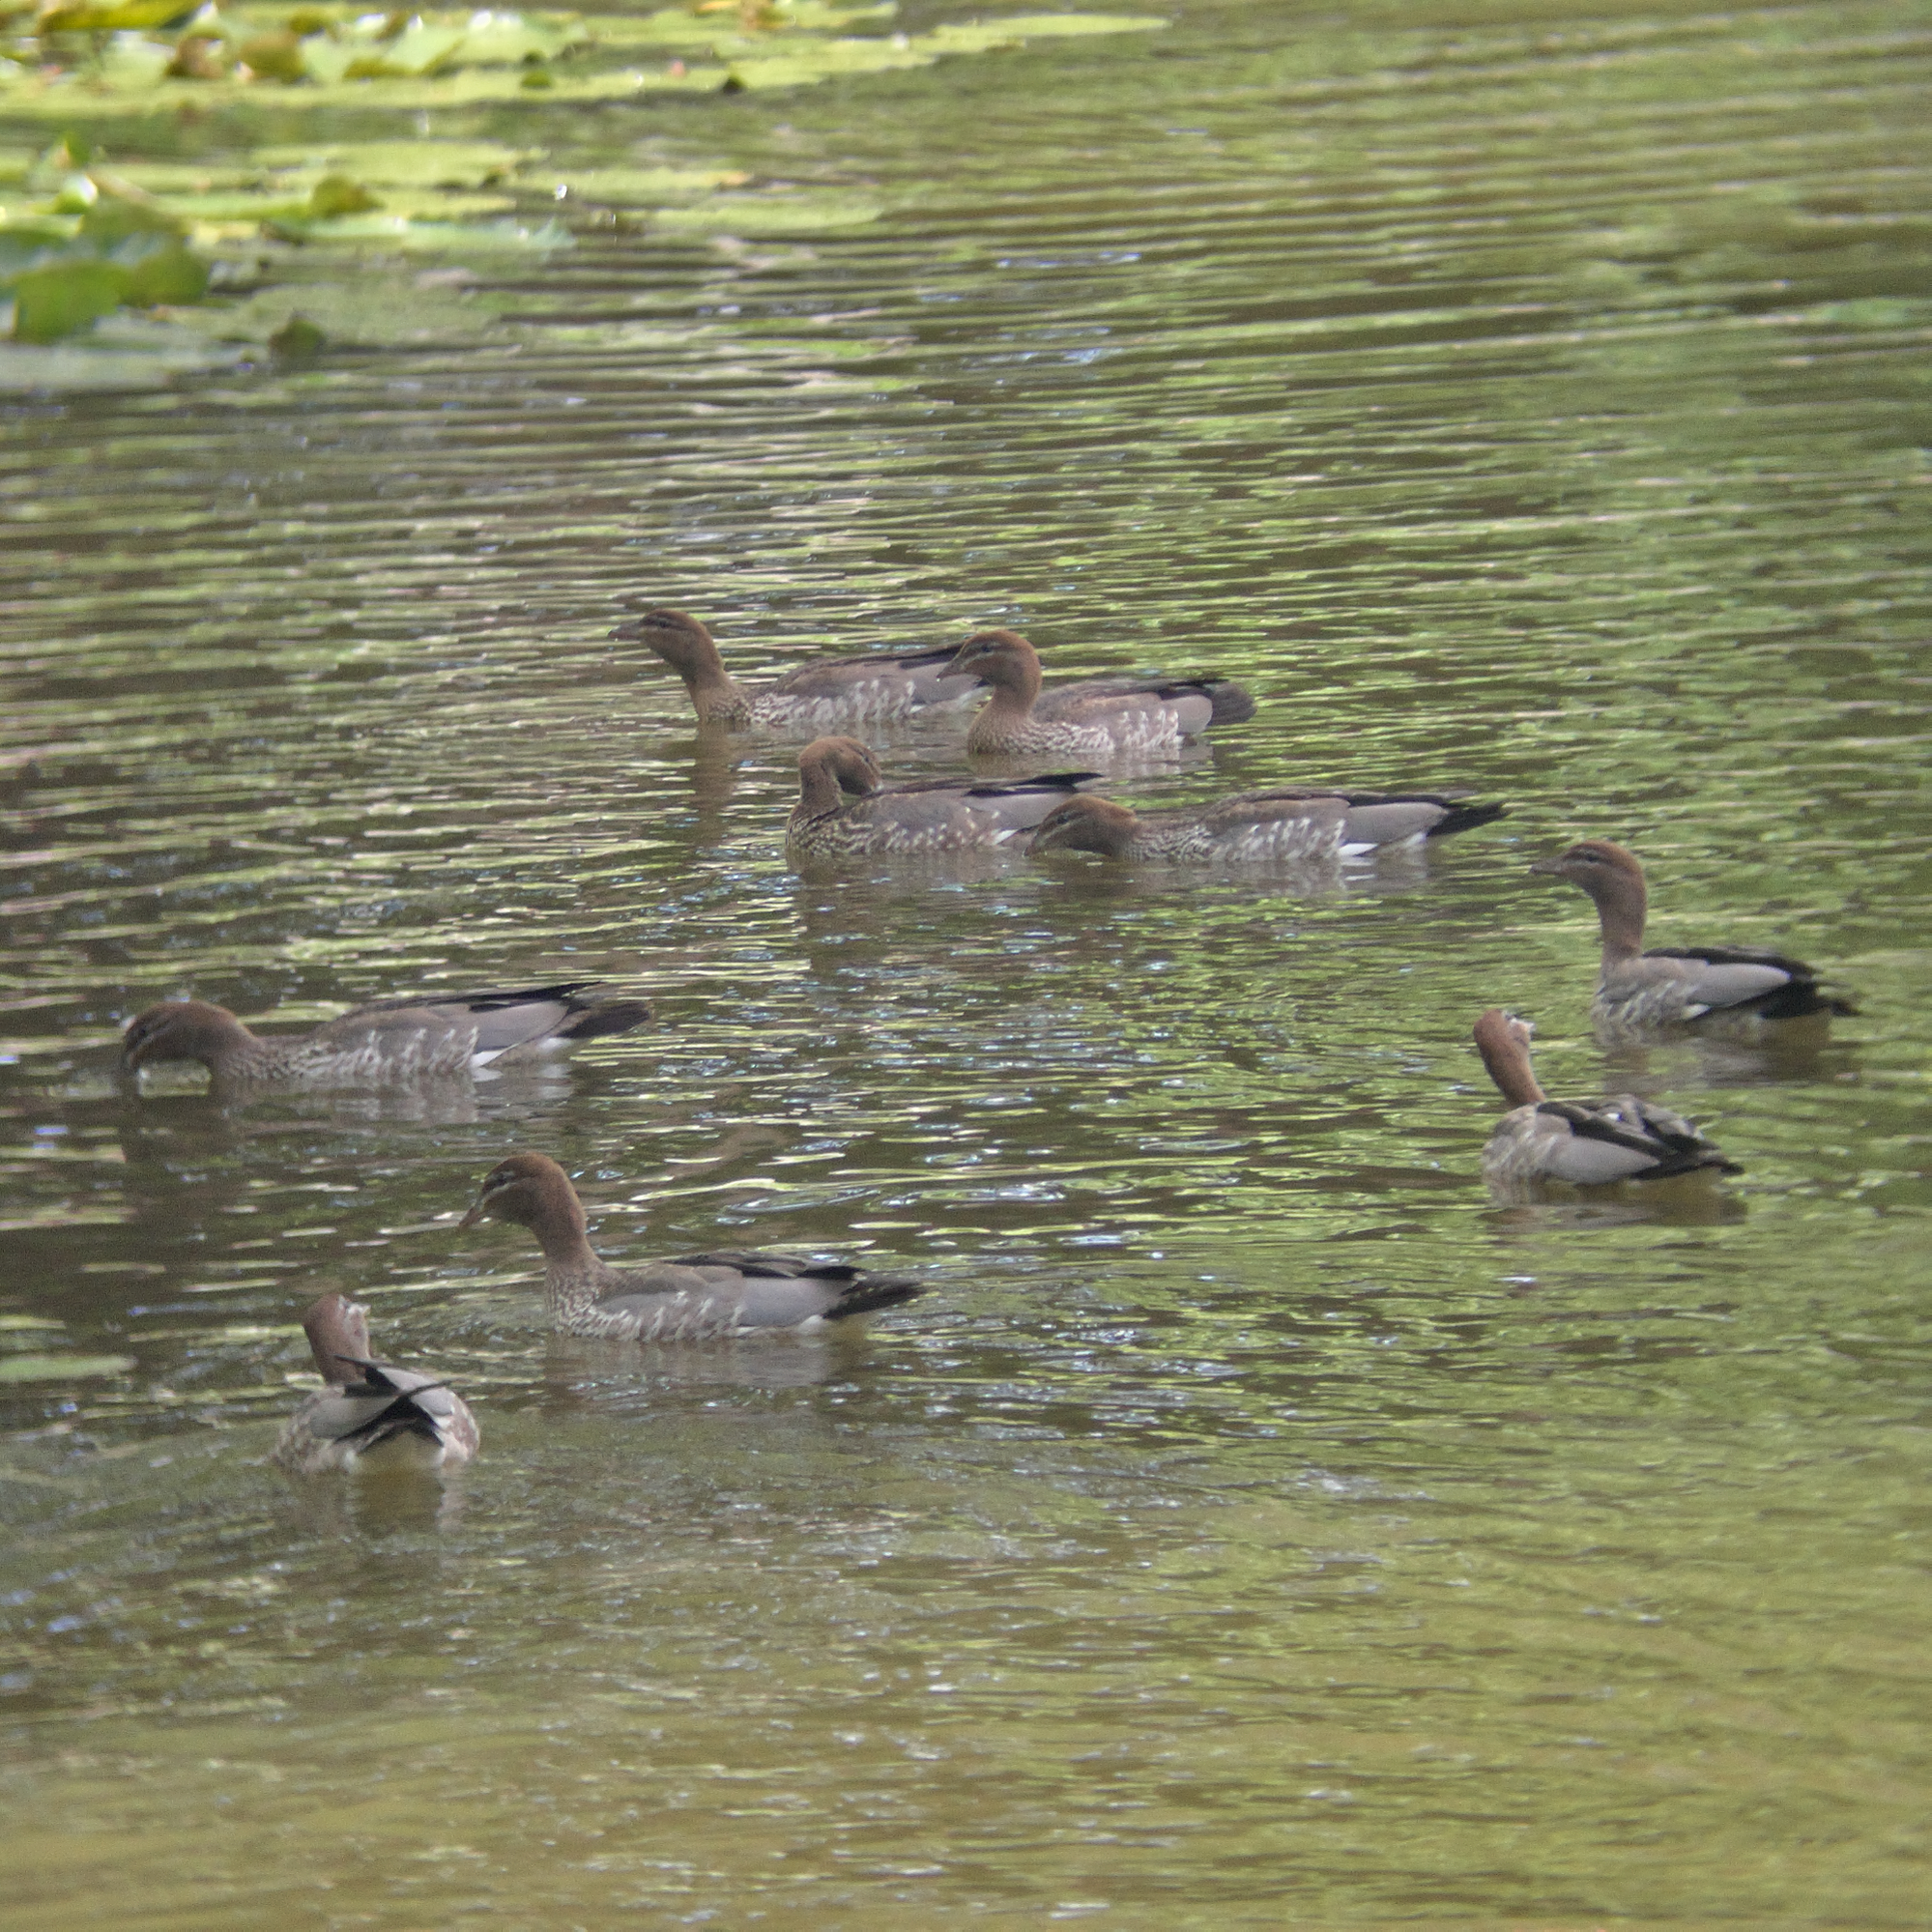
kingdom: Animalia
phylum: Chordata
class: Aves
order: Anseriformes
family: Anatidae
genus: Chenonetta
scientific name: Chenonetta jubata
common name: Maned duck
